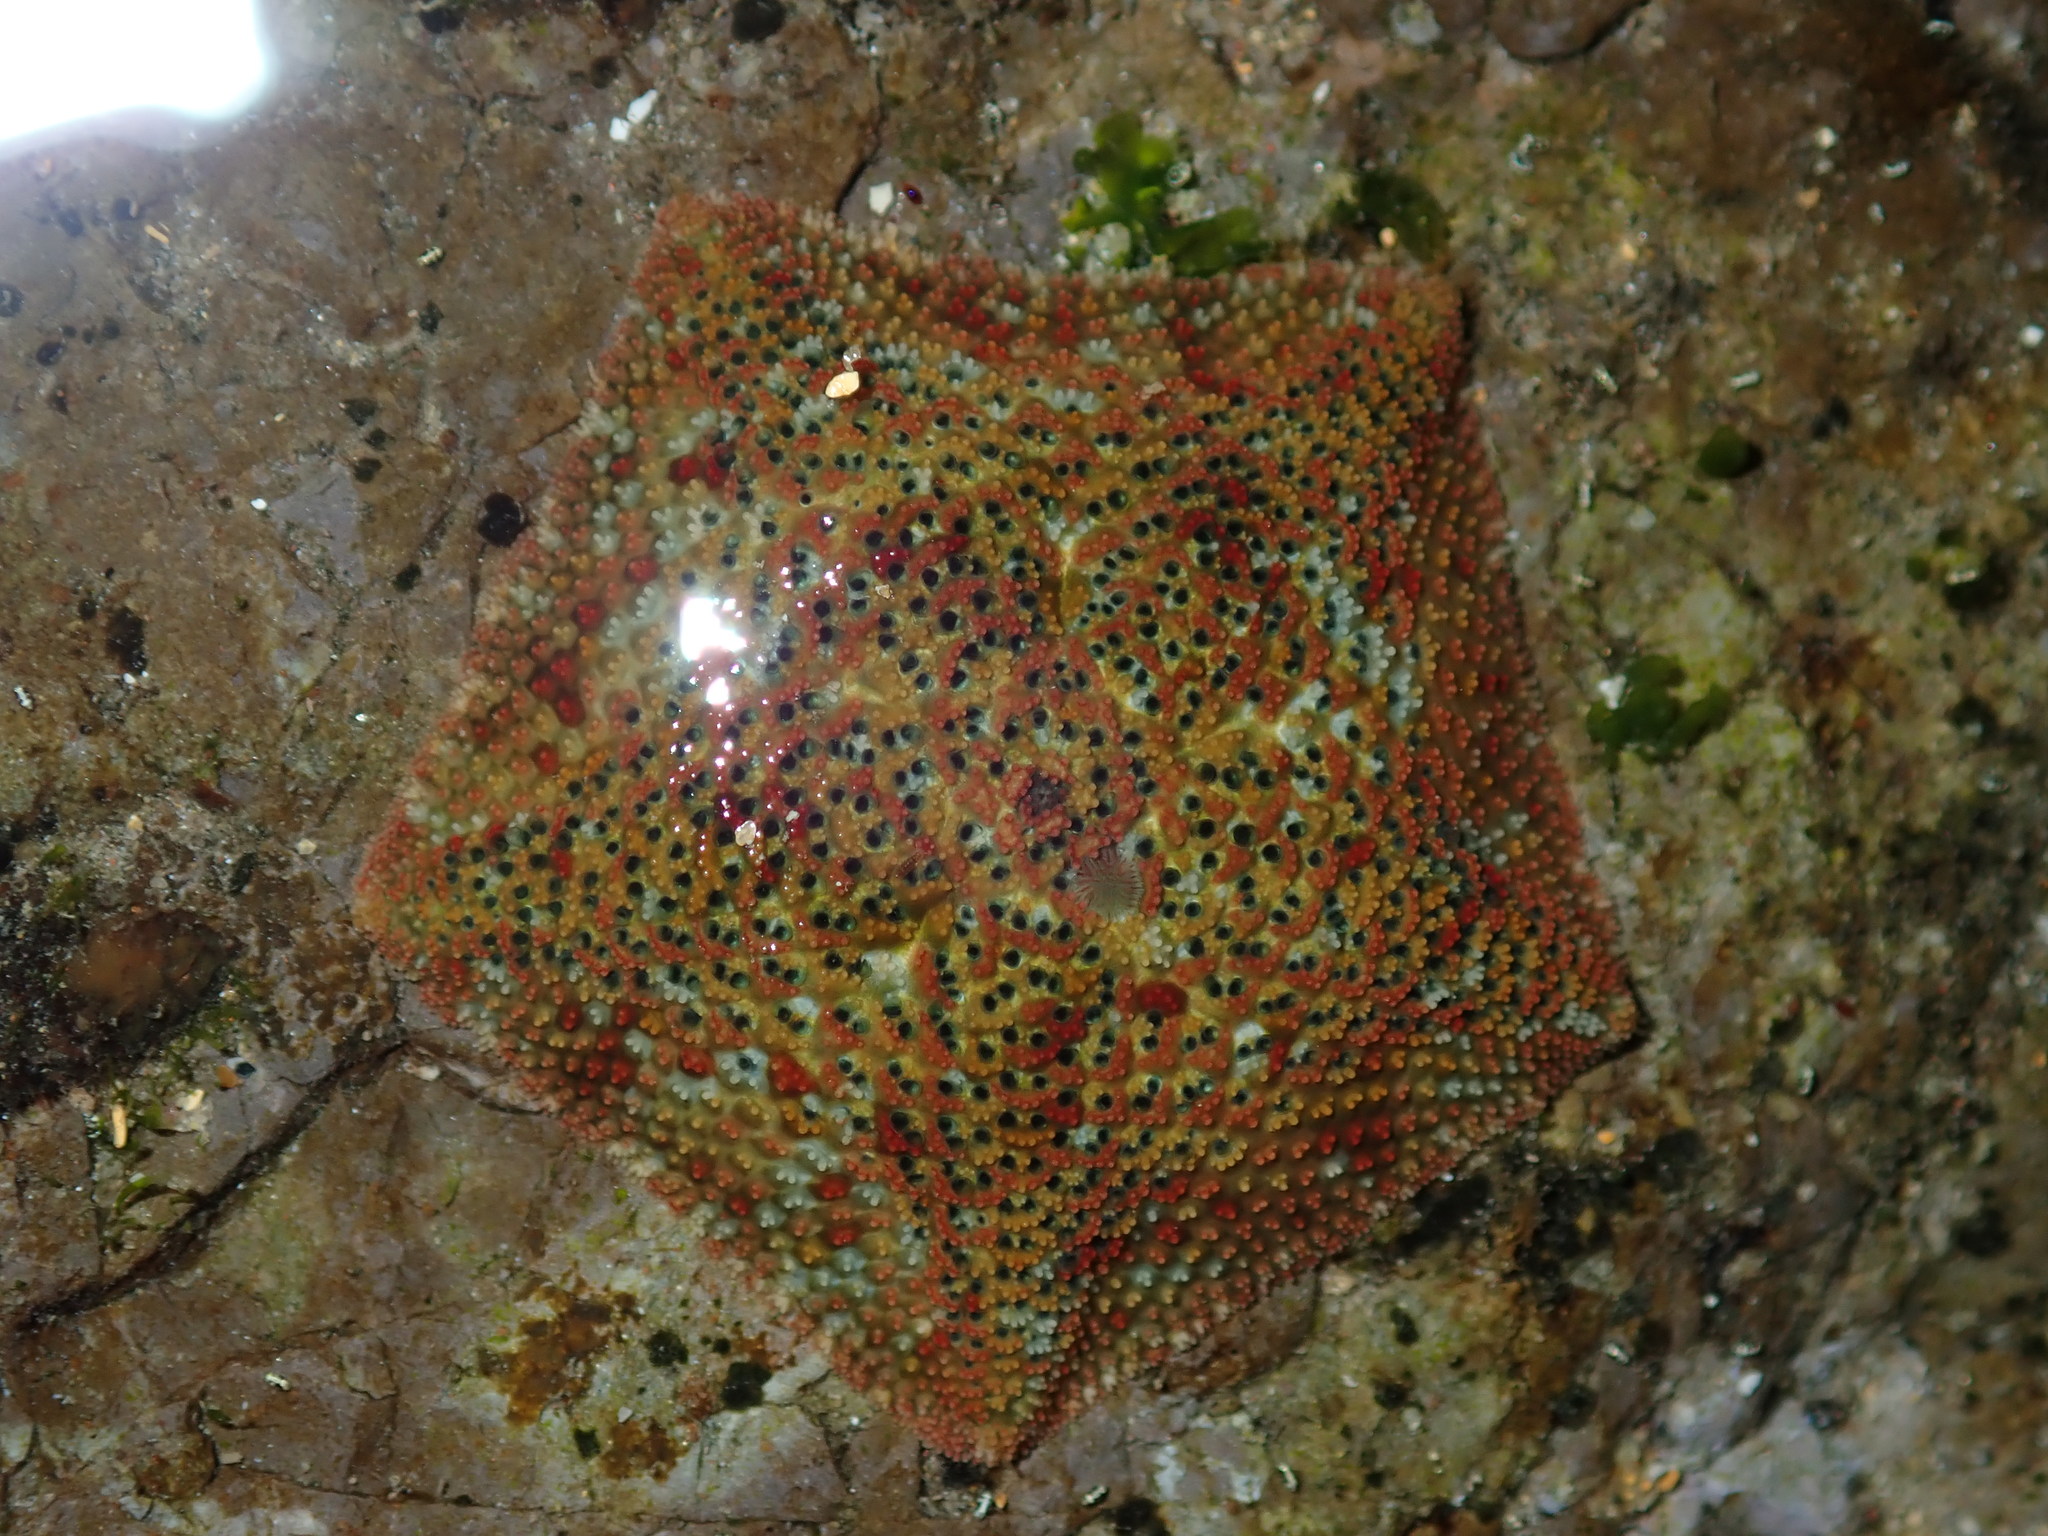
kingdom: Animalia
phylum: Echinodermata
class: Asteroidea
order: Valvatida
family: Asterinidae
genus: Parvulastra
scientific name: Parvulastra exigua
